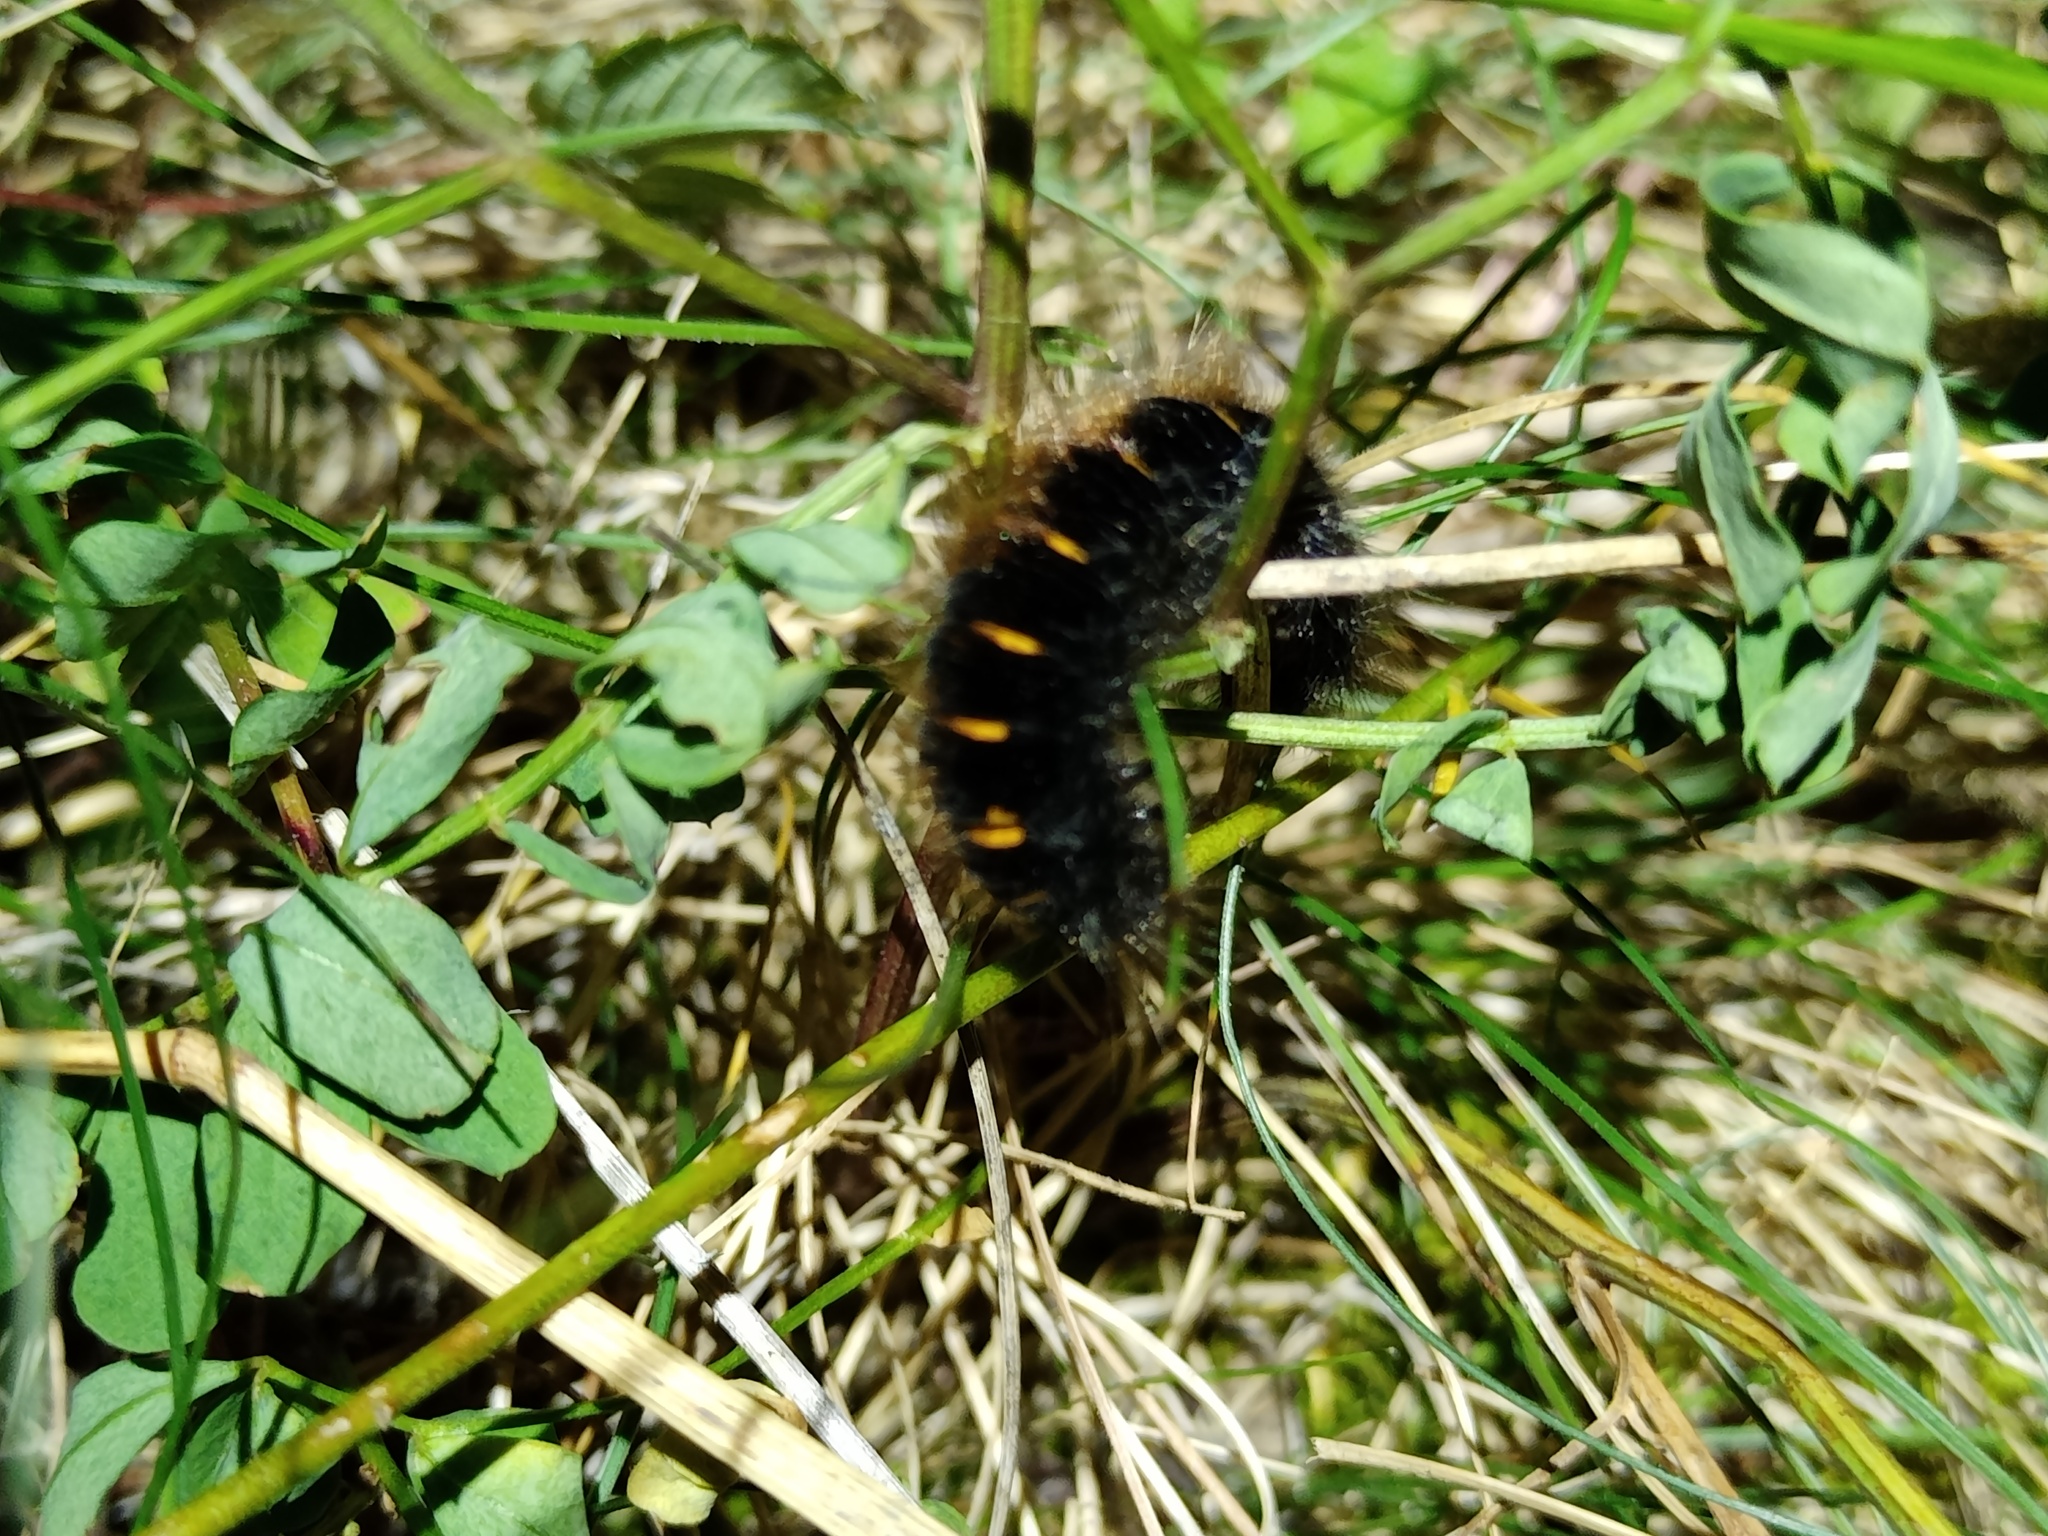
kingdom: Animalia
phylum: Arthropoda
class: Insecta
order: Lepidoptera
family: Lasiocampidae
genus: Macrothylacia
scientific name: Macrothylacia rubi
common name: Fox moth
